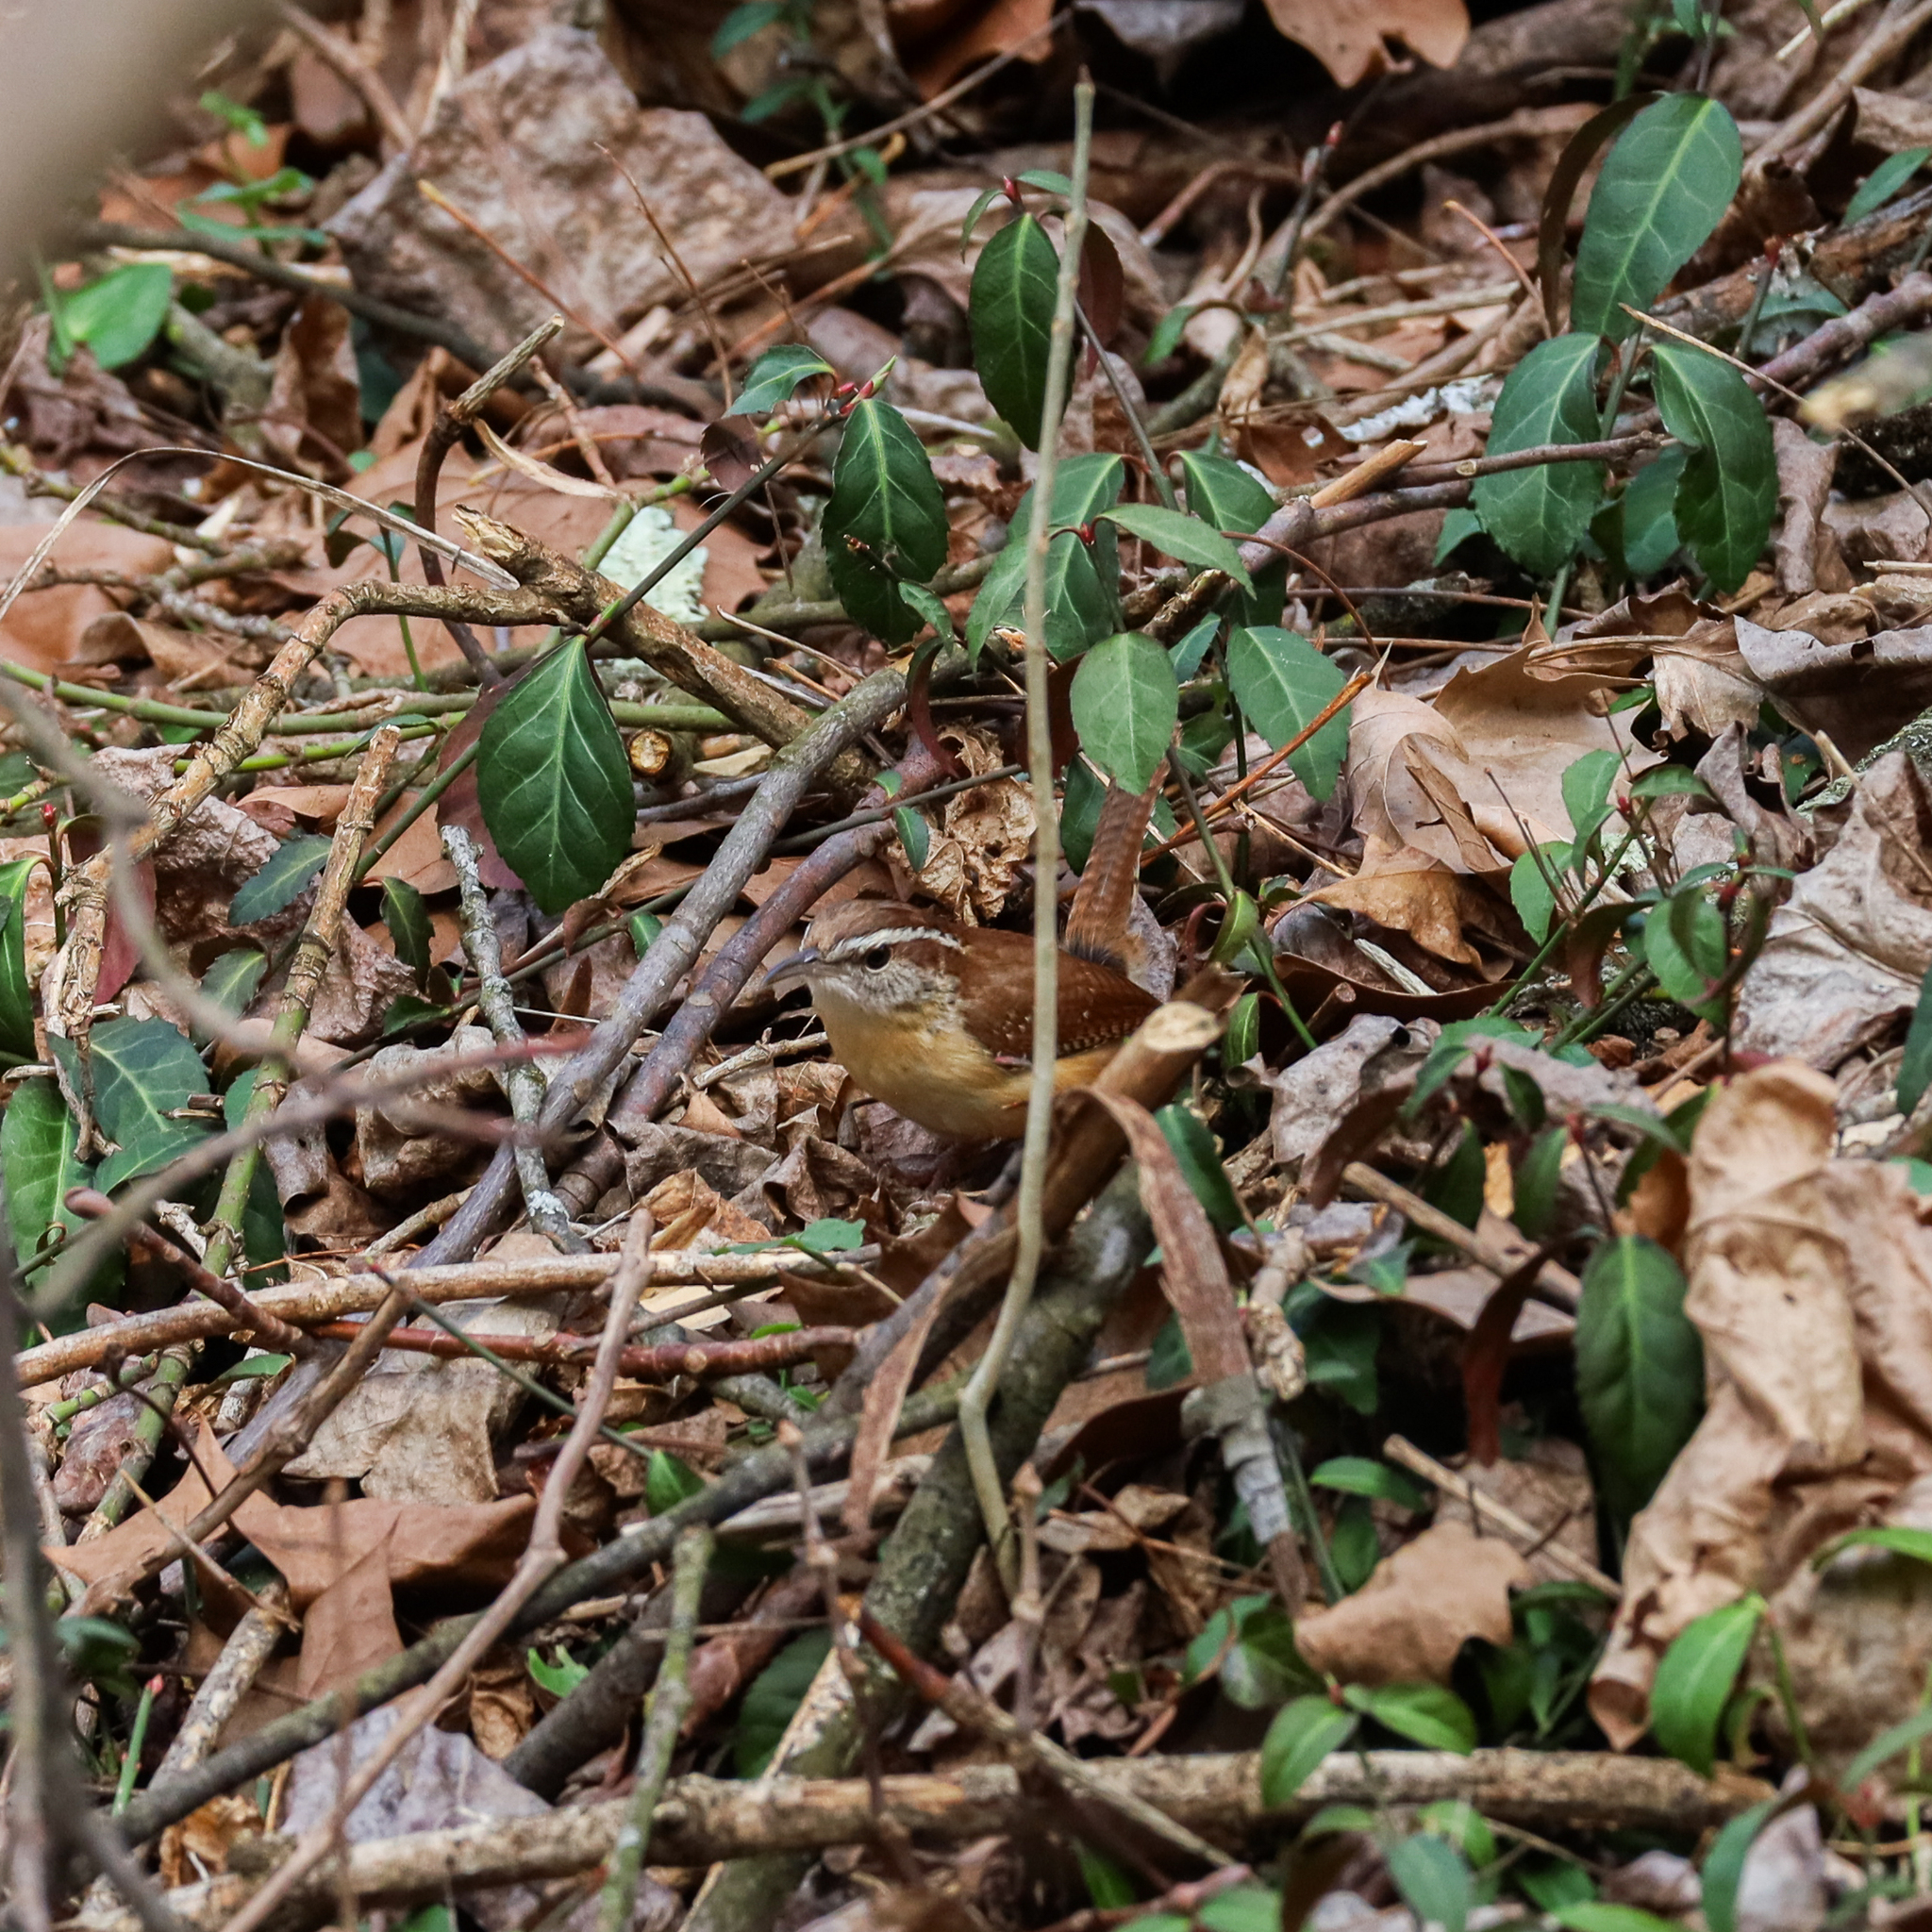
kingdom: Animalia
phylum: Chordata
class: Aves
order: Passeriformes
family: Troglodytidae
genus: Thryothorus
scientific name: Thryothorus ludovicianus
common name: Carolina wren
